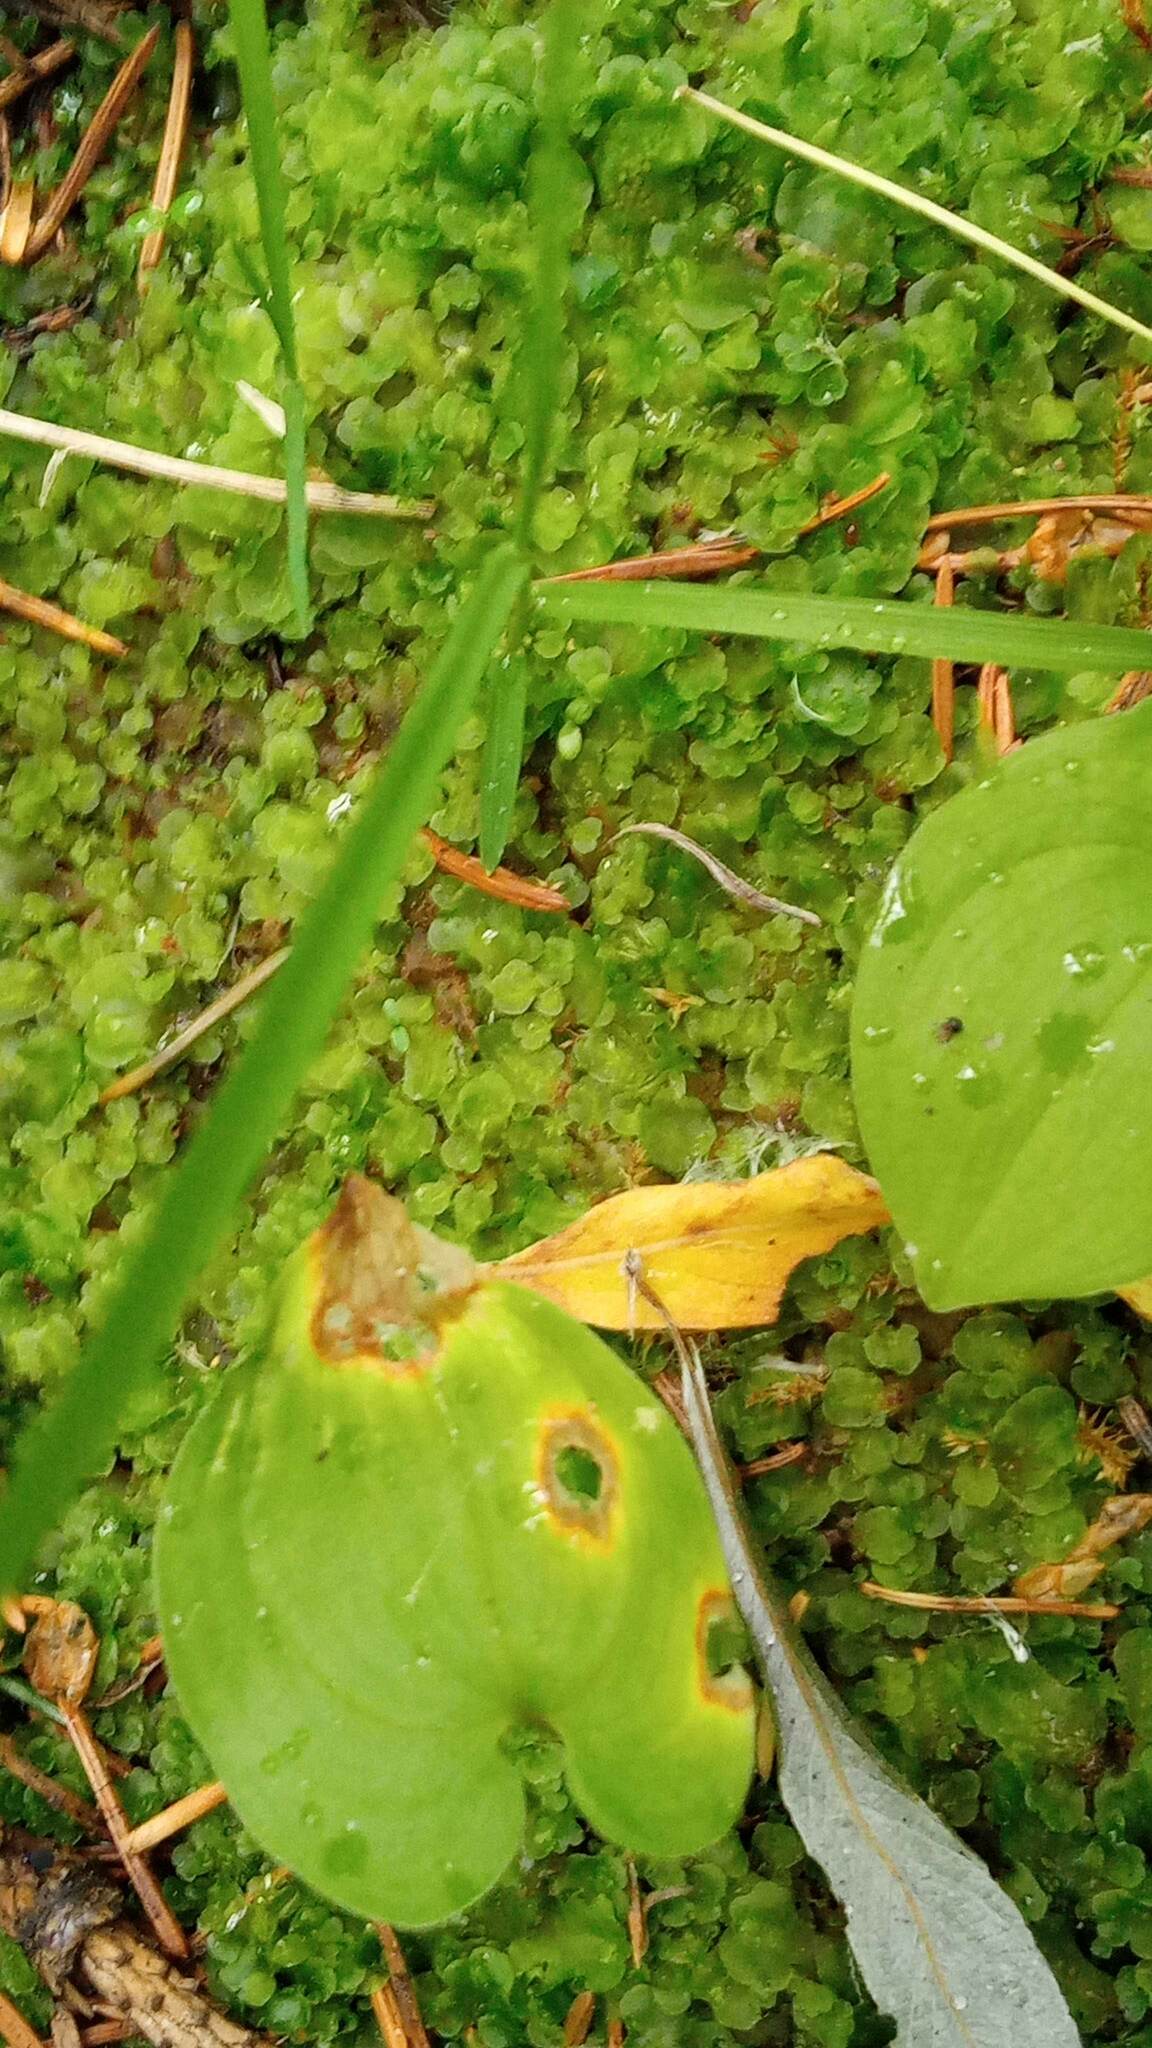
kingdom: Plantae
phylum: Marchantiophyta
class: Jungermanniopsida
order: Pelliales
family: Pelliaceae
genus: Pellia
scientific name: Pellia neesiana
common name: Nees  pellia
